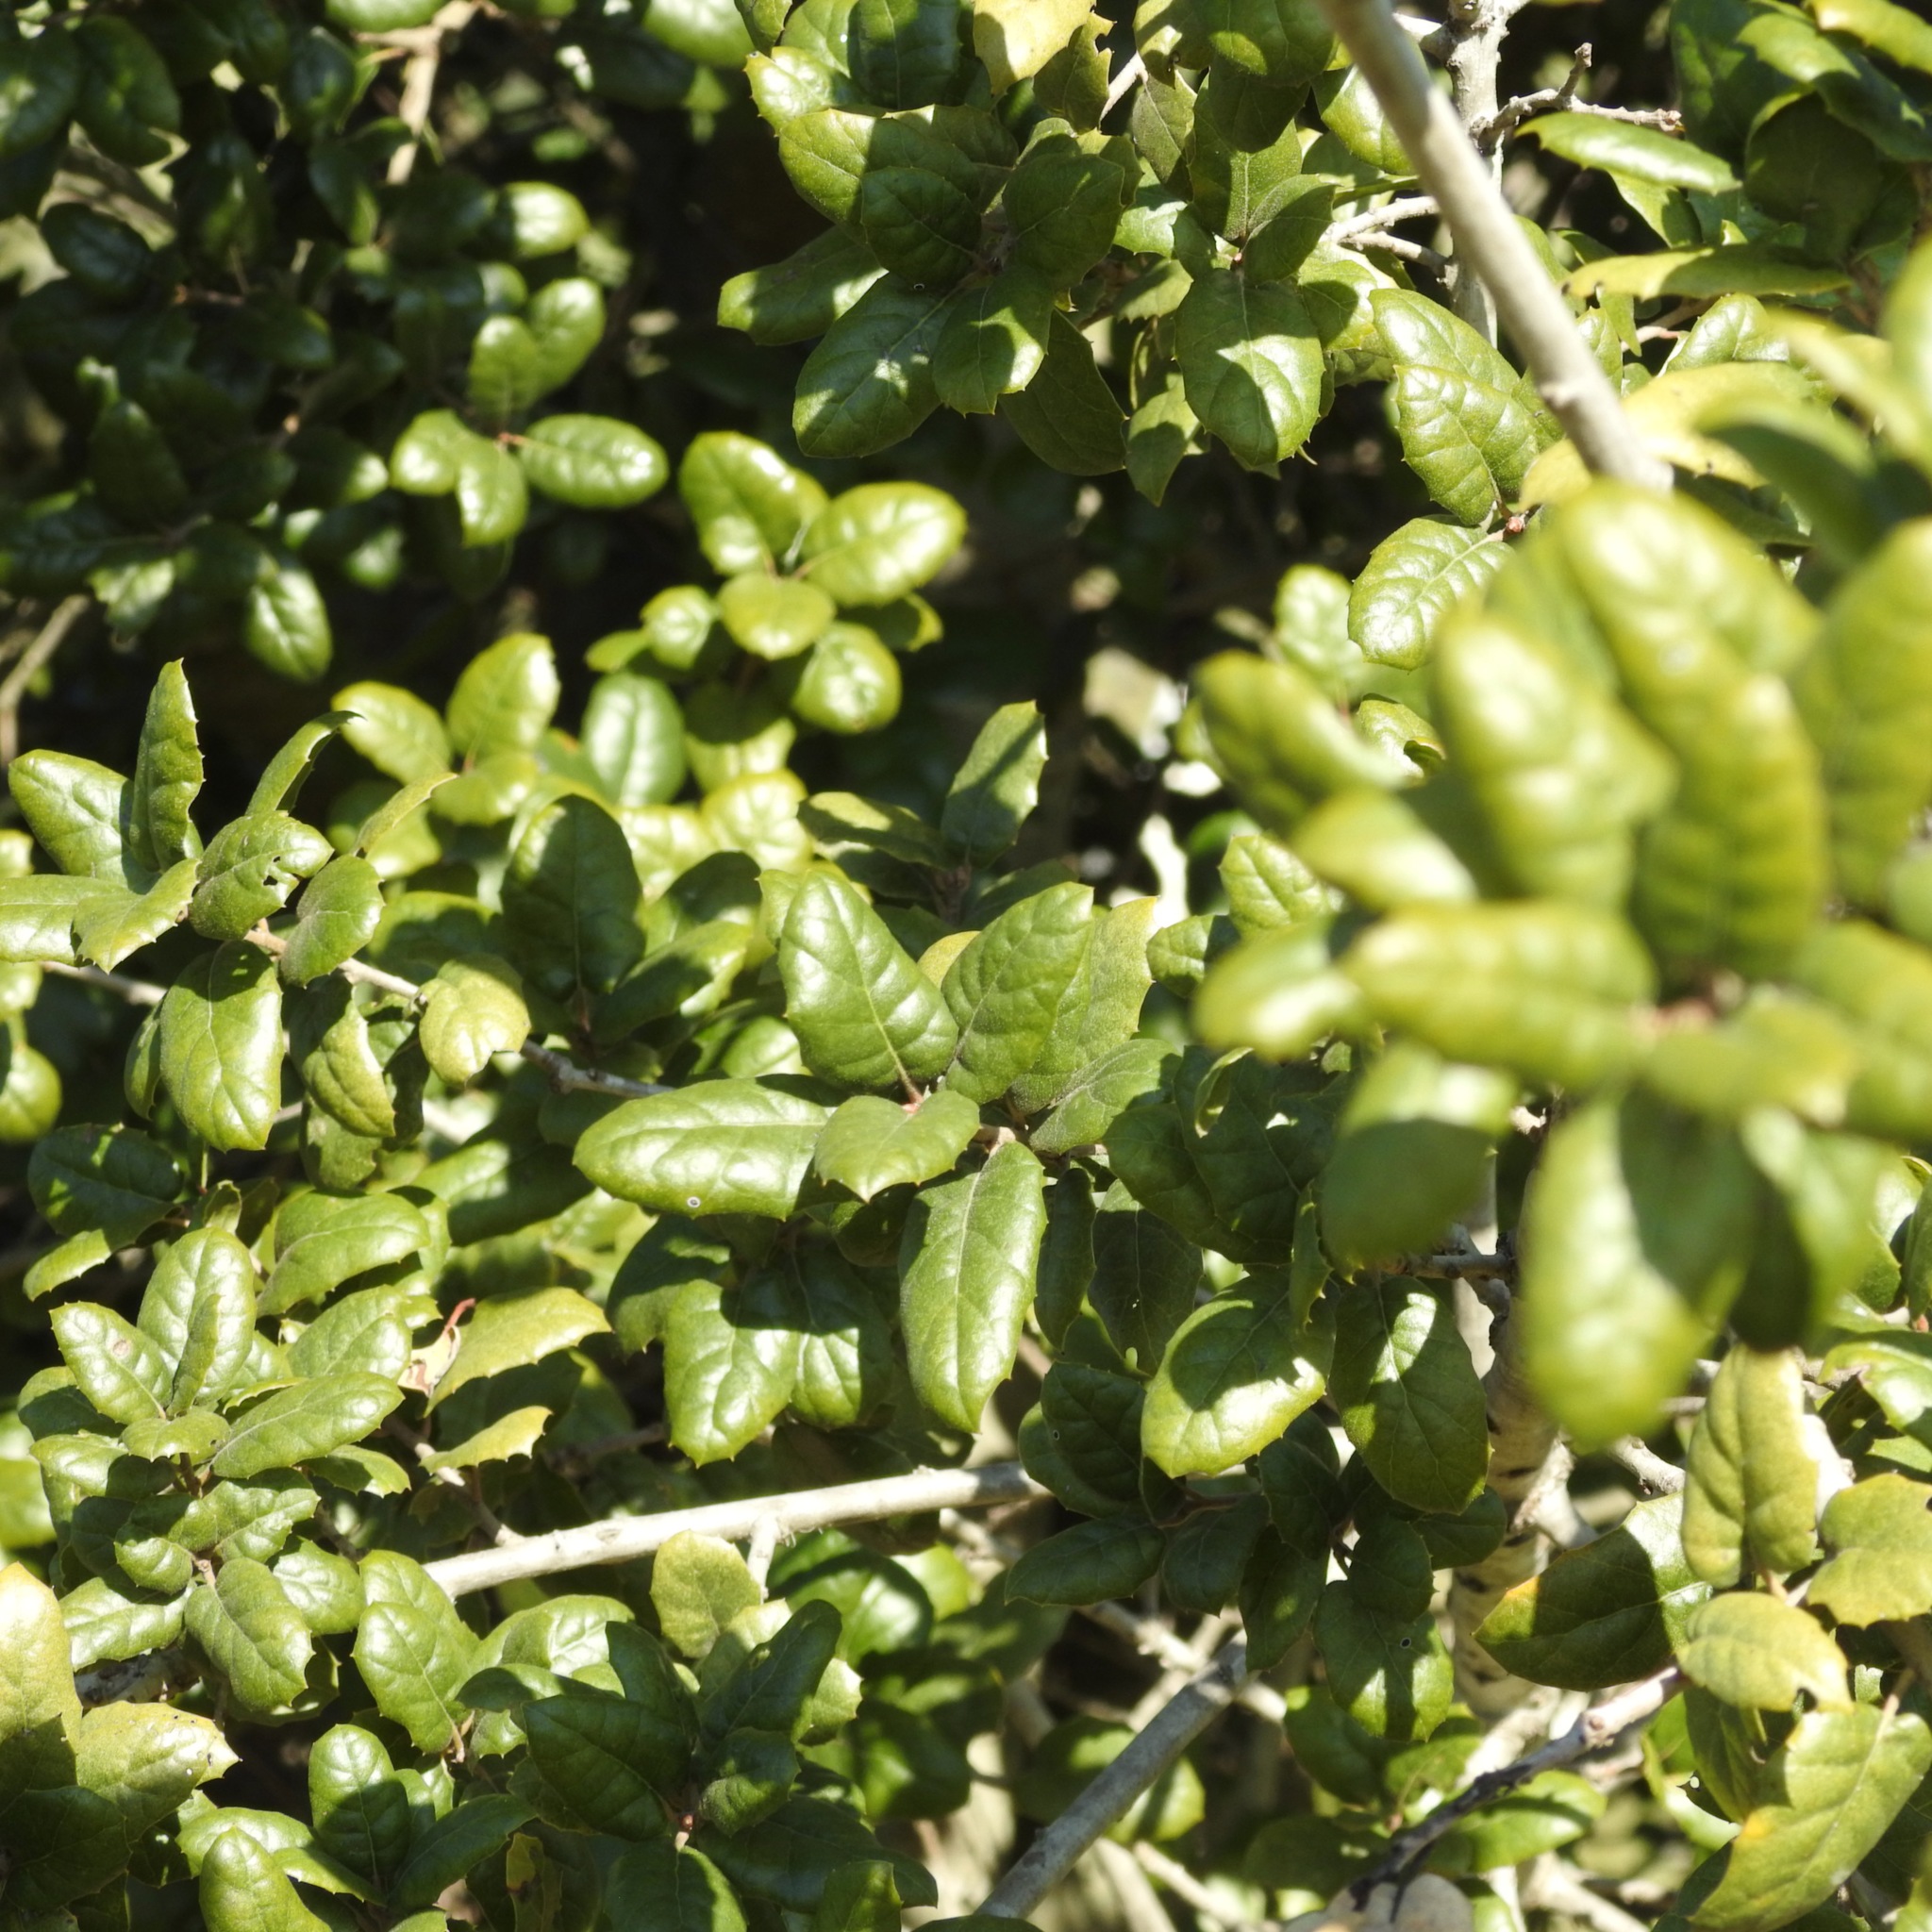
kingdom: Plantae
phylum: Tracheophyta
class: Magnoliopsida
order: Fagales
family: Fagaceae
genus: Quercus
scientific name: Quercus agrifolia
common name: California live oak
